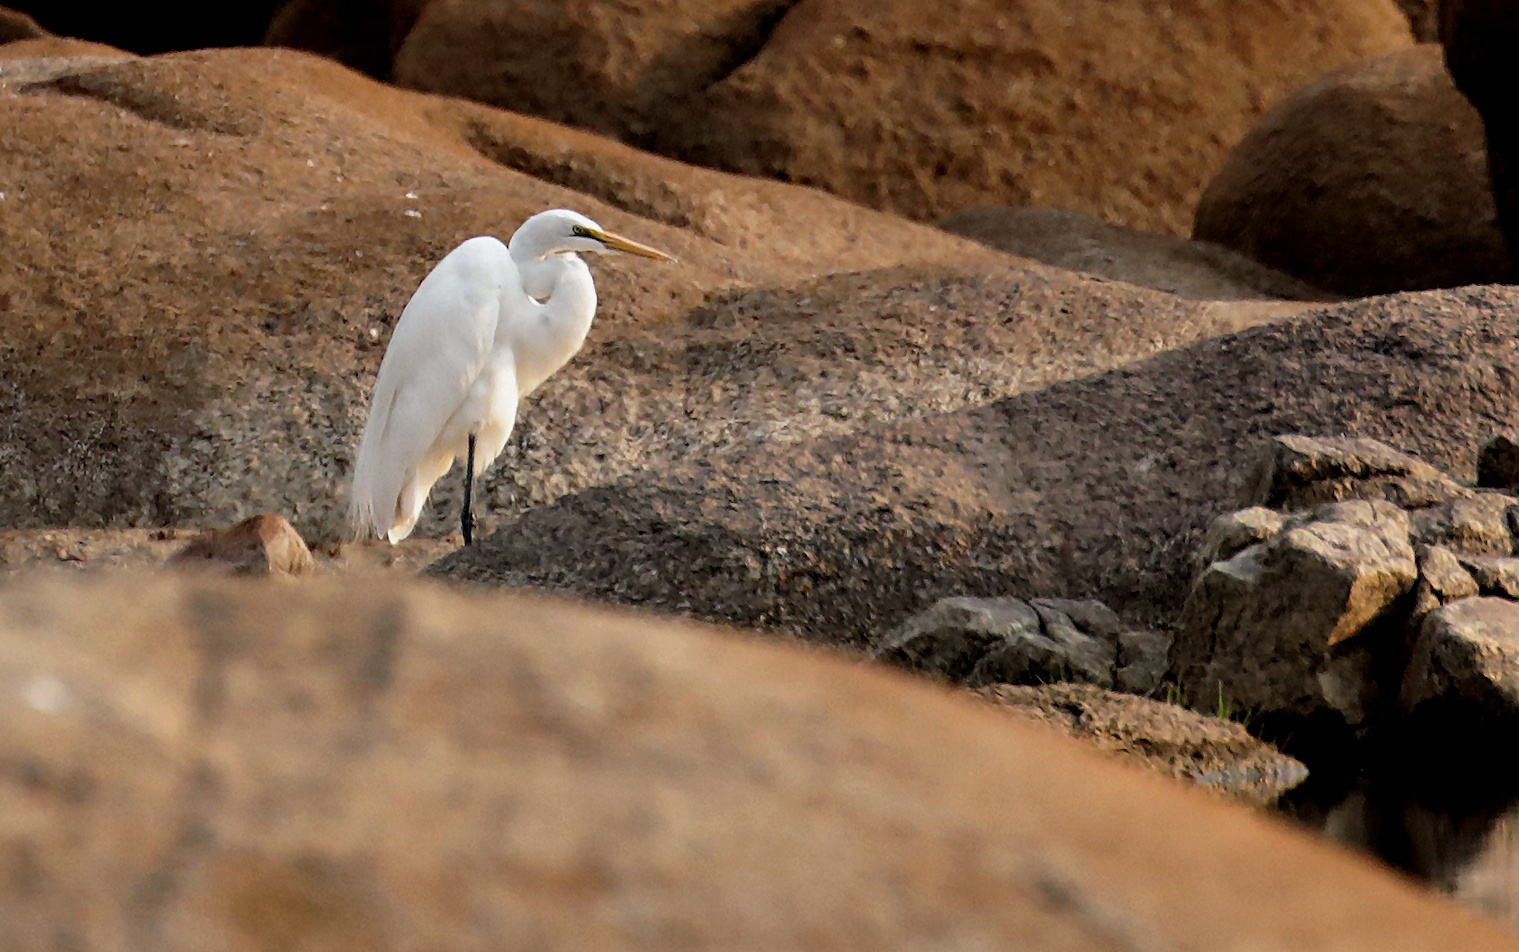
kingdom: Animalia
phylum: Chordata
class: Aves
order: Pelecaniformes
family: Ardeidae
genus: Ardea
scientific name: Ardea alba
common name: Great egret
